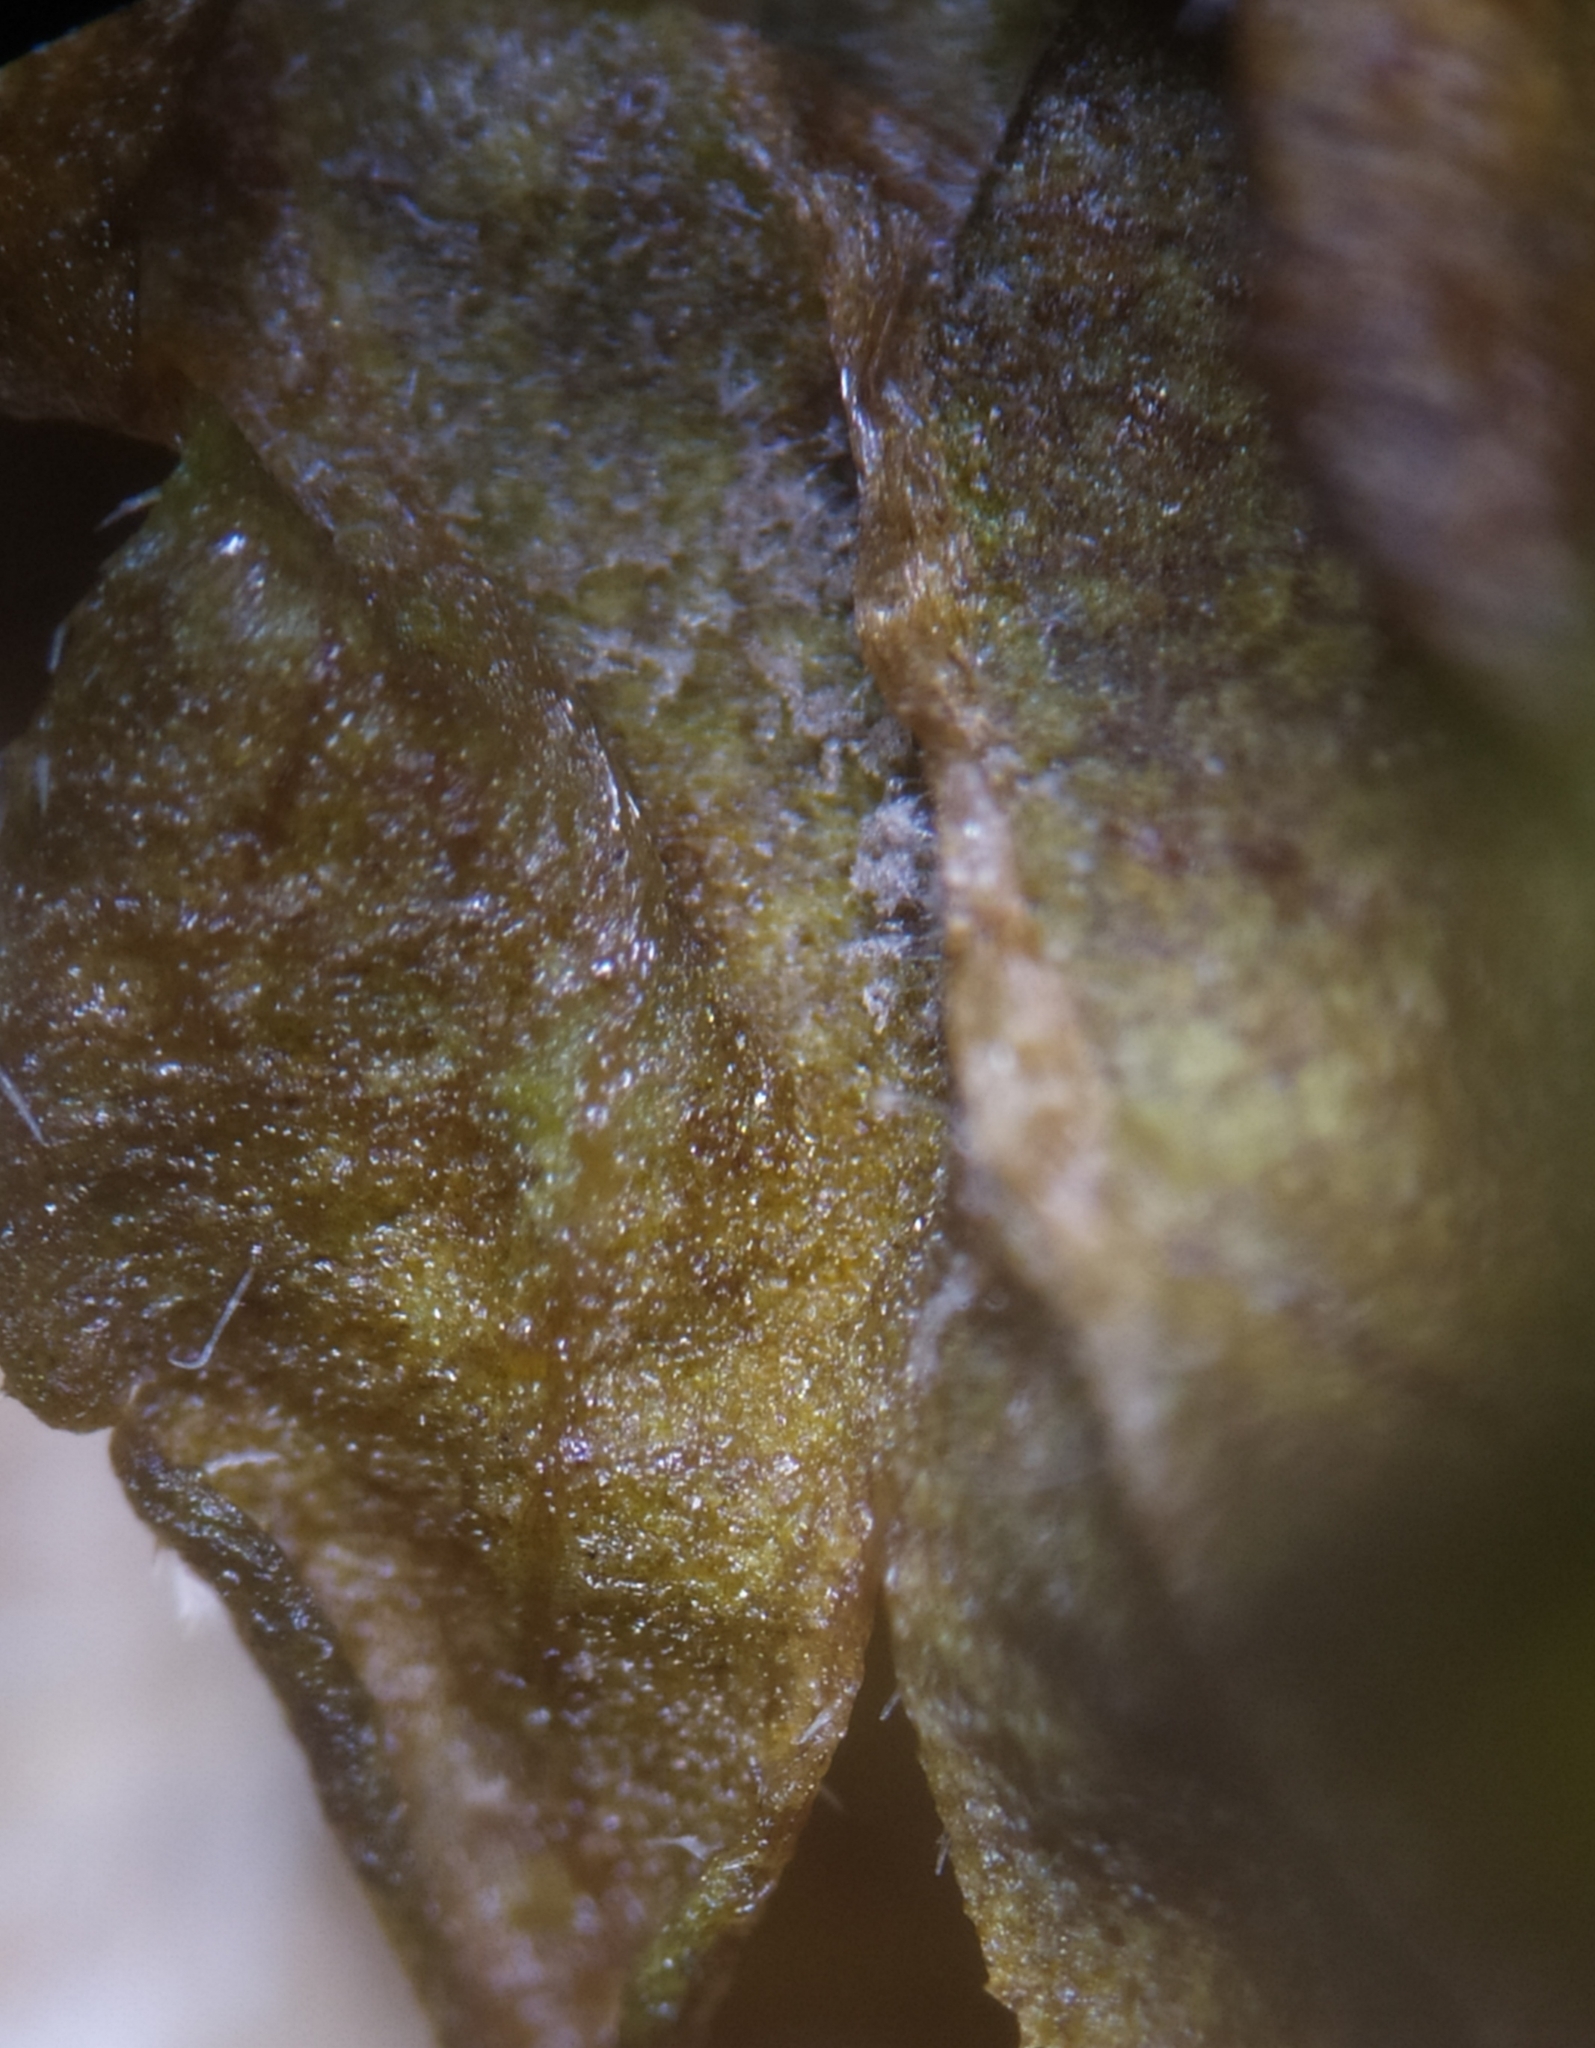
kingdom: Chromista
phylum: Oomycota
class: Peronosporea
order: Peronosporales
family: Peronosporaceae
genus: Peronospora
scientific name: Peronospora grisea
